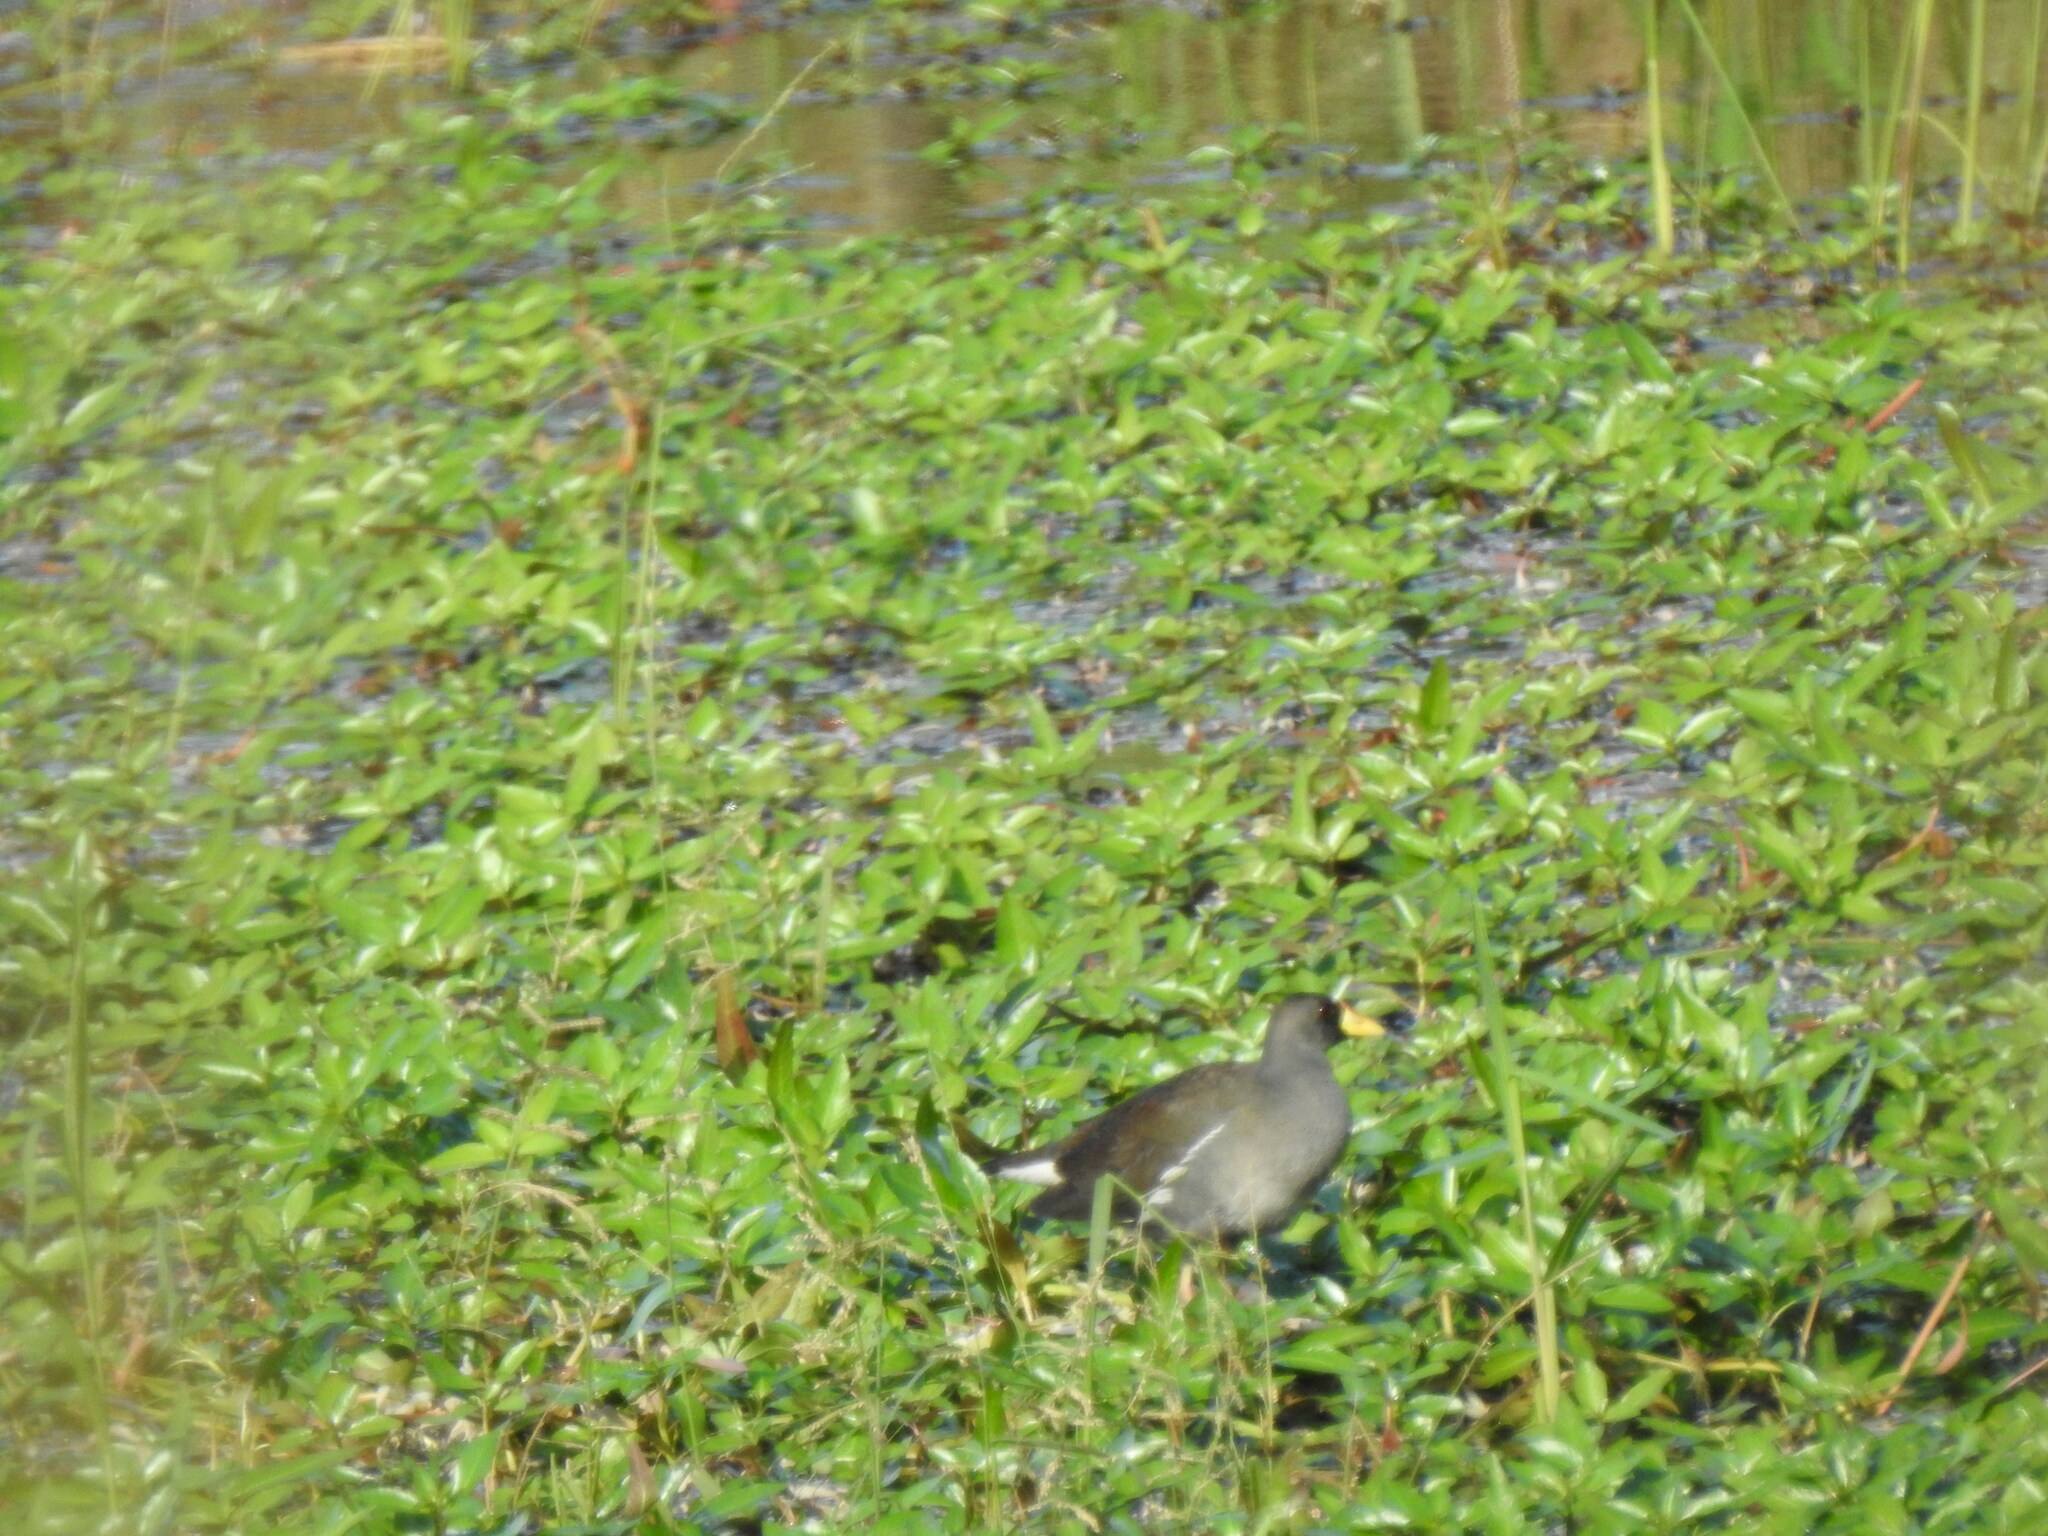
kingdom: Animalia
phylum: Chordata
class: Aves
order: Gruiformes
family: Rallidae
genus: Gallinula
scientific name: Gallinula angulata
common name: Lesser moorhen
